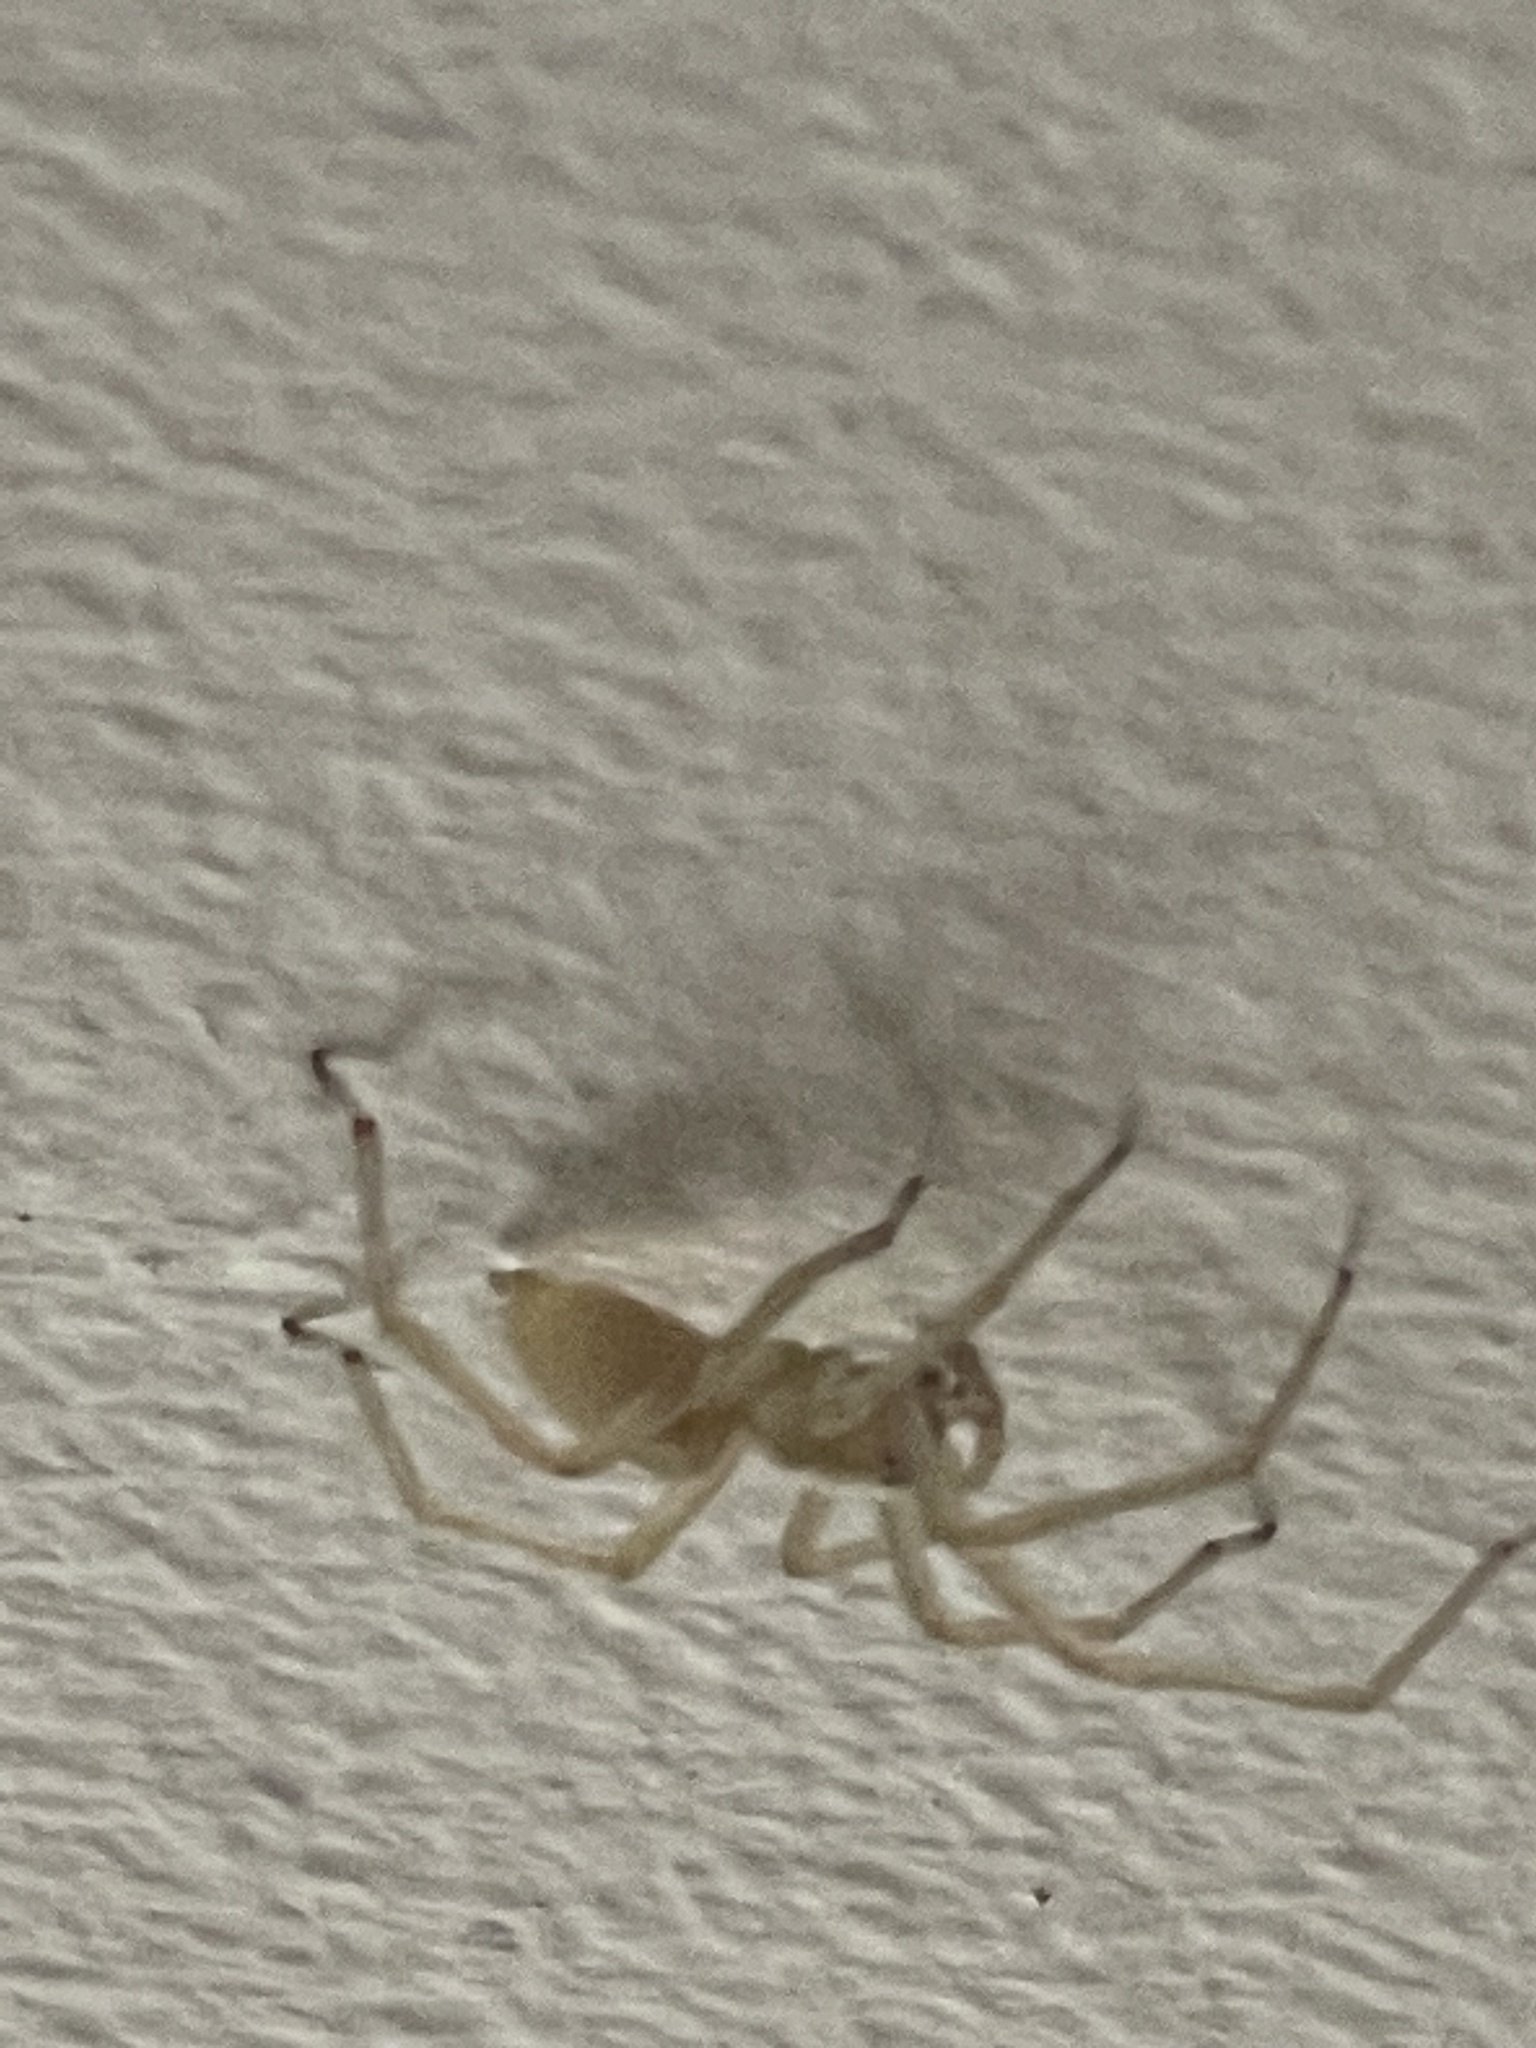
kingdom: Animalia
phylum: Arthropoda
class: Arachnida
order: Araneae
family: Cheiracanthiidae
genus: Cheiracanthium
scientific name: Cheiracanthium mildei
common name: Northern yellow sac spider
